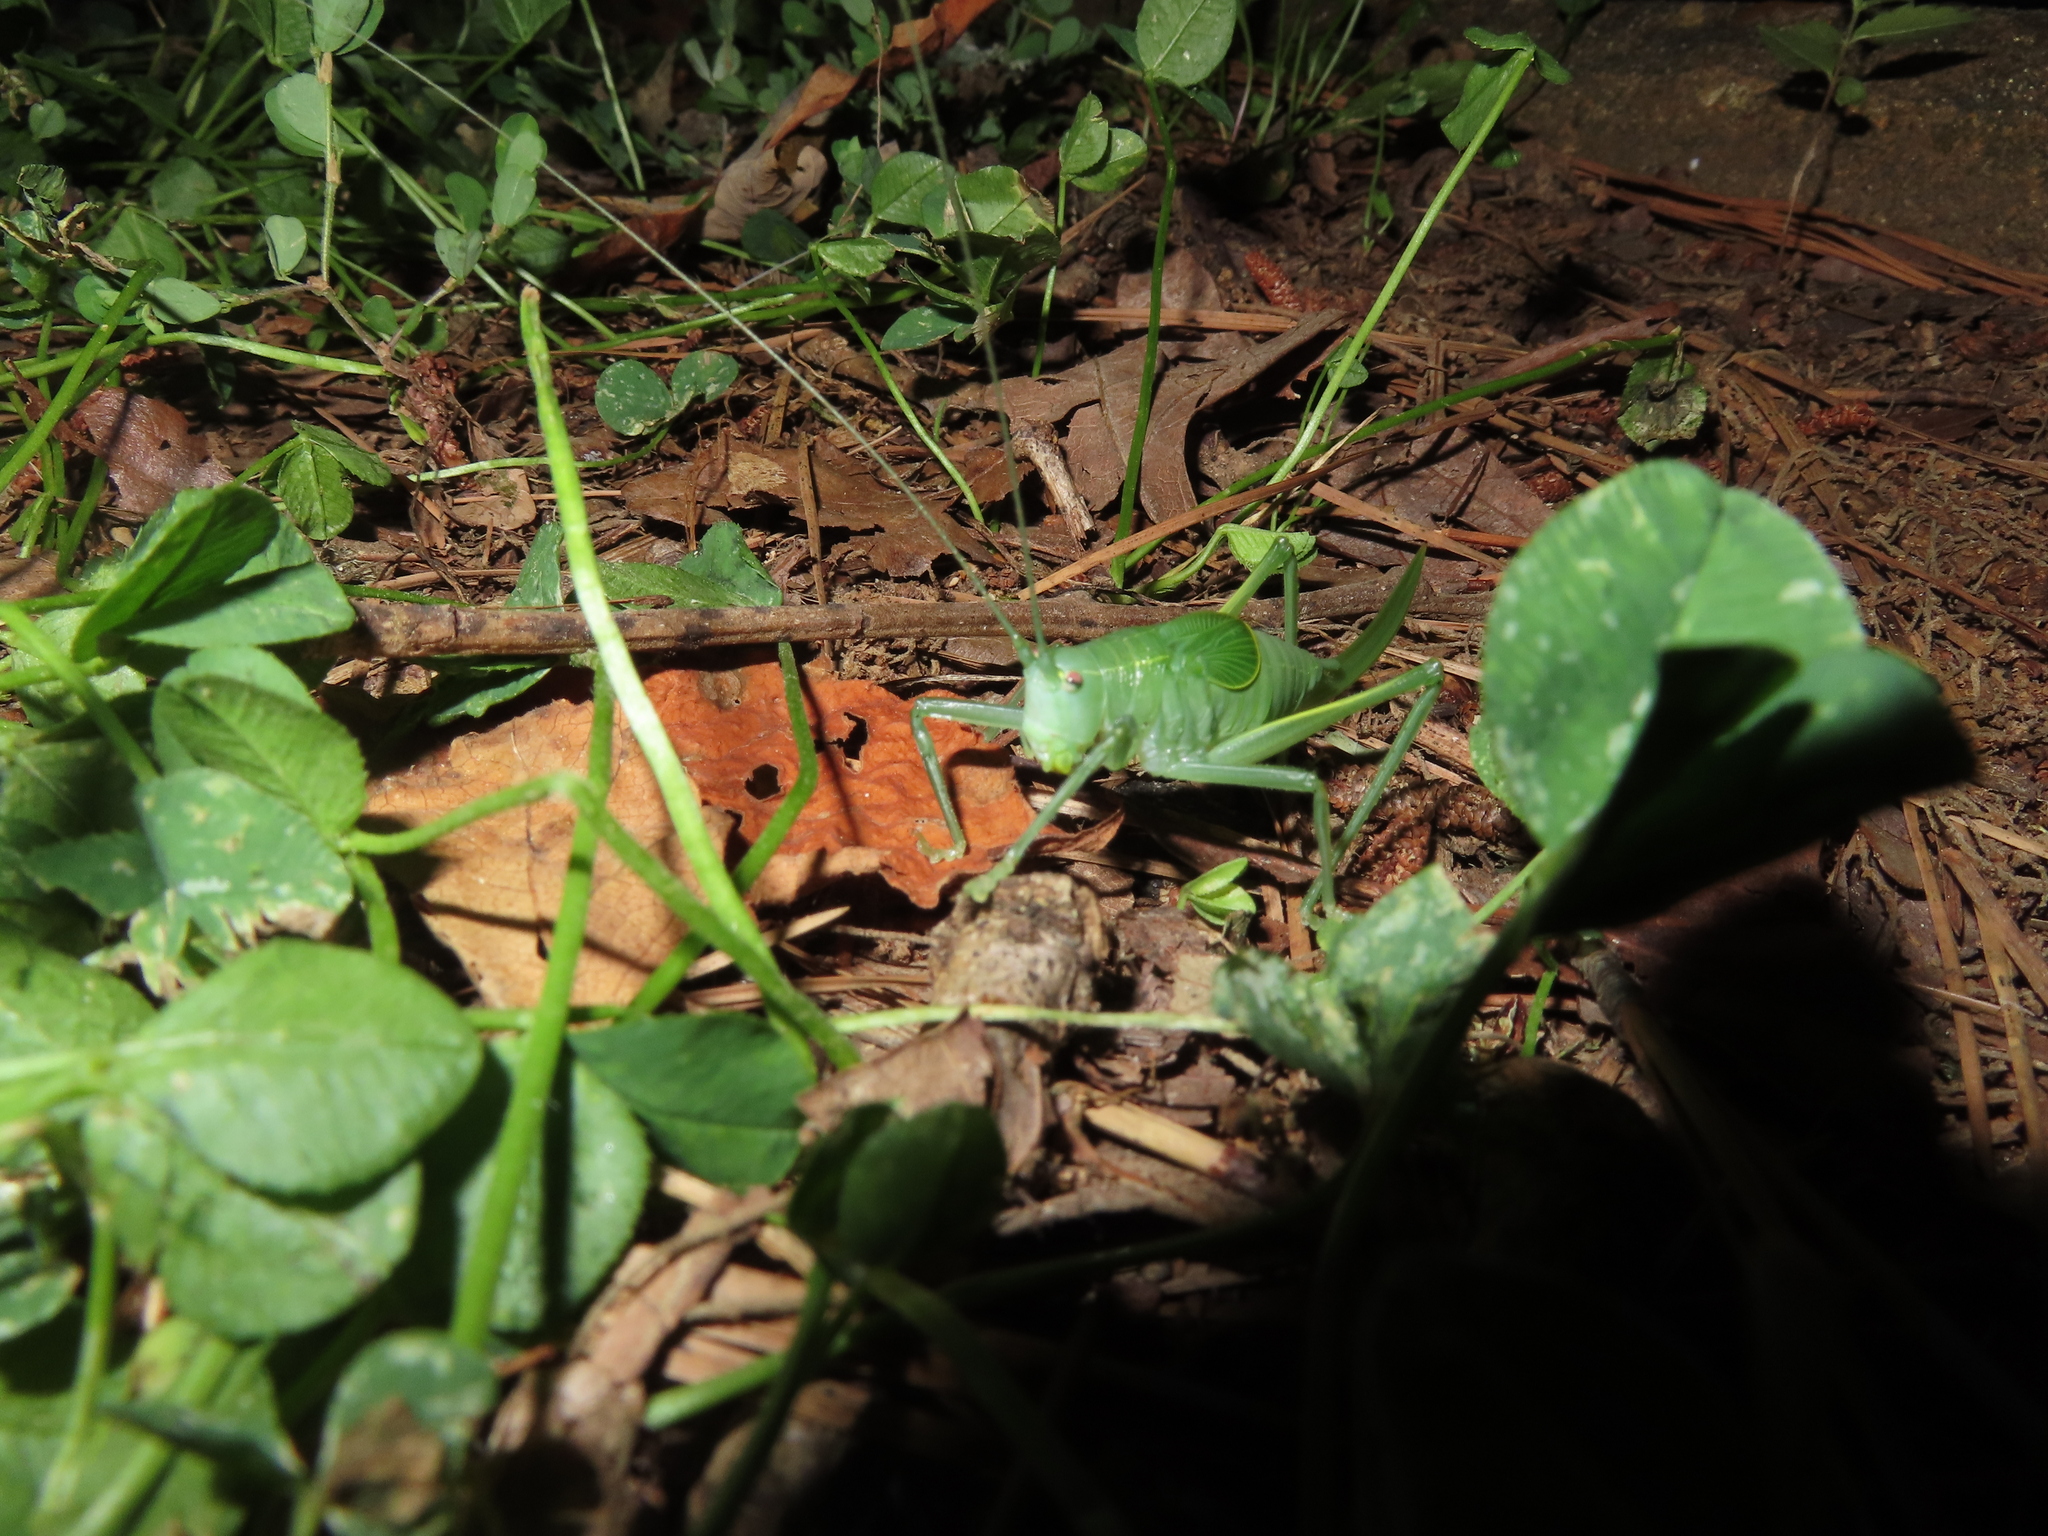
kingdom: Animalia
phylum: Arthropoda
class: Insecta
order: Orthoptera
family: Tettigoniidae
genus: Pterophylla
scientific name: Pterophylla camellifolia
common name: Common true katydid
